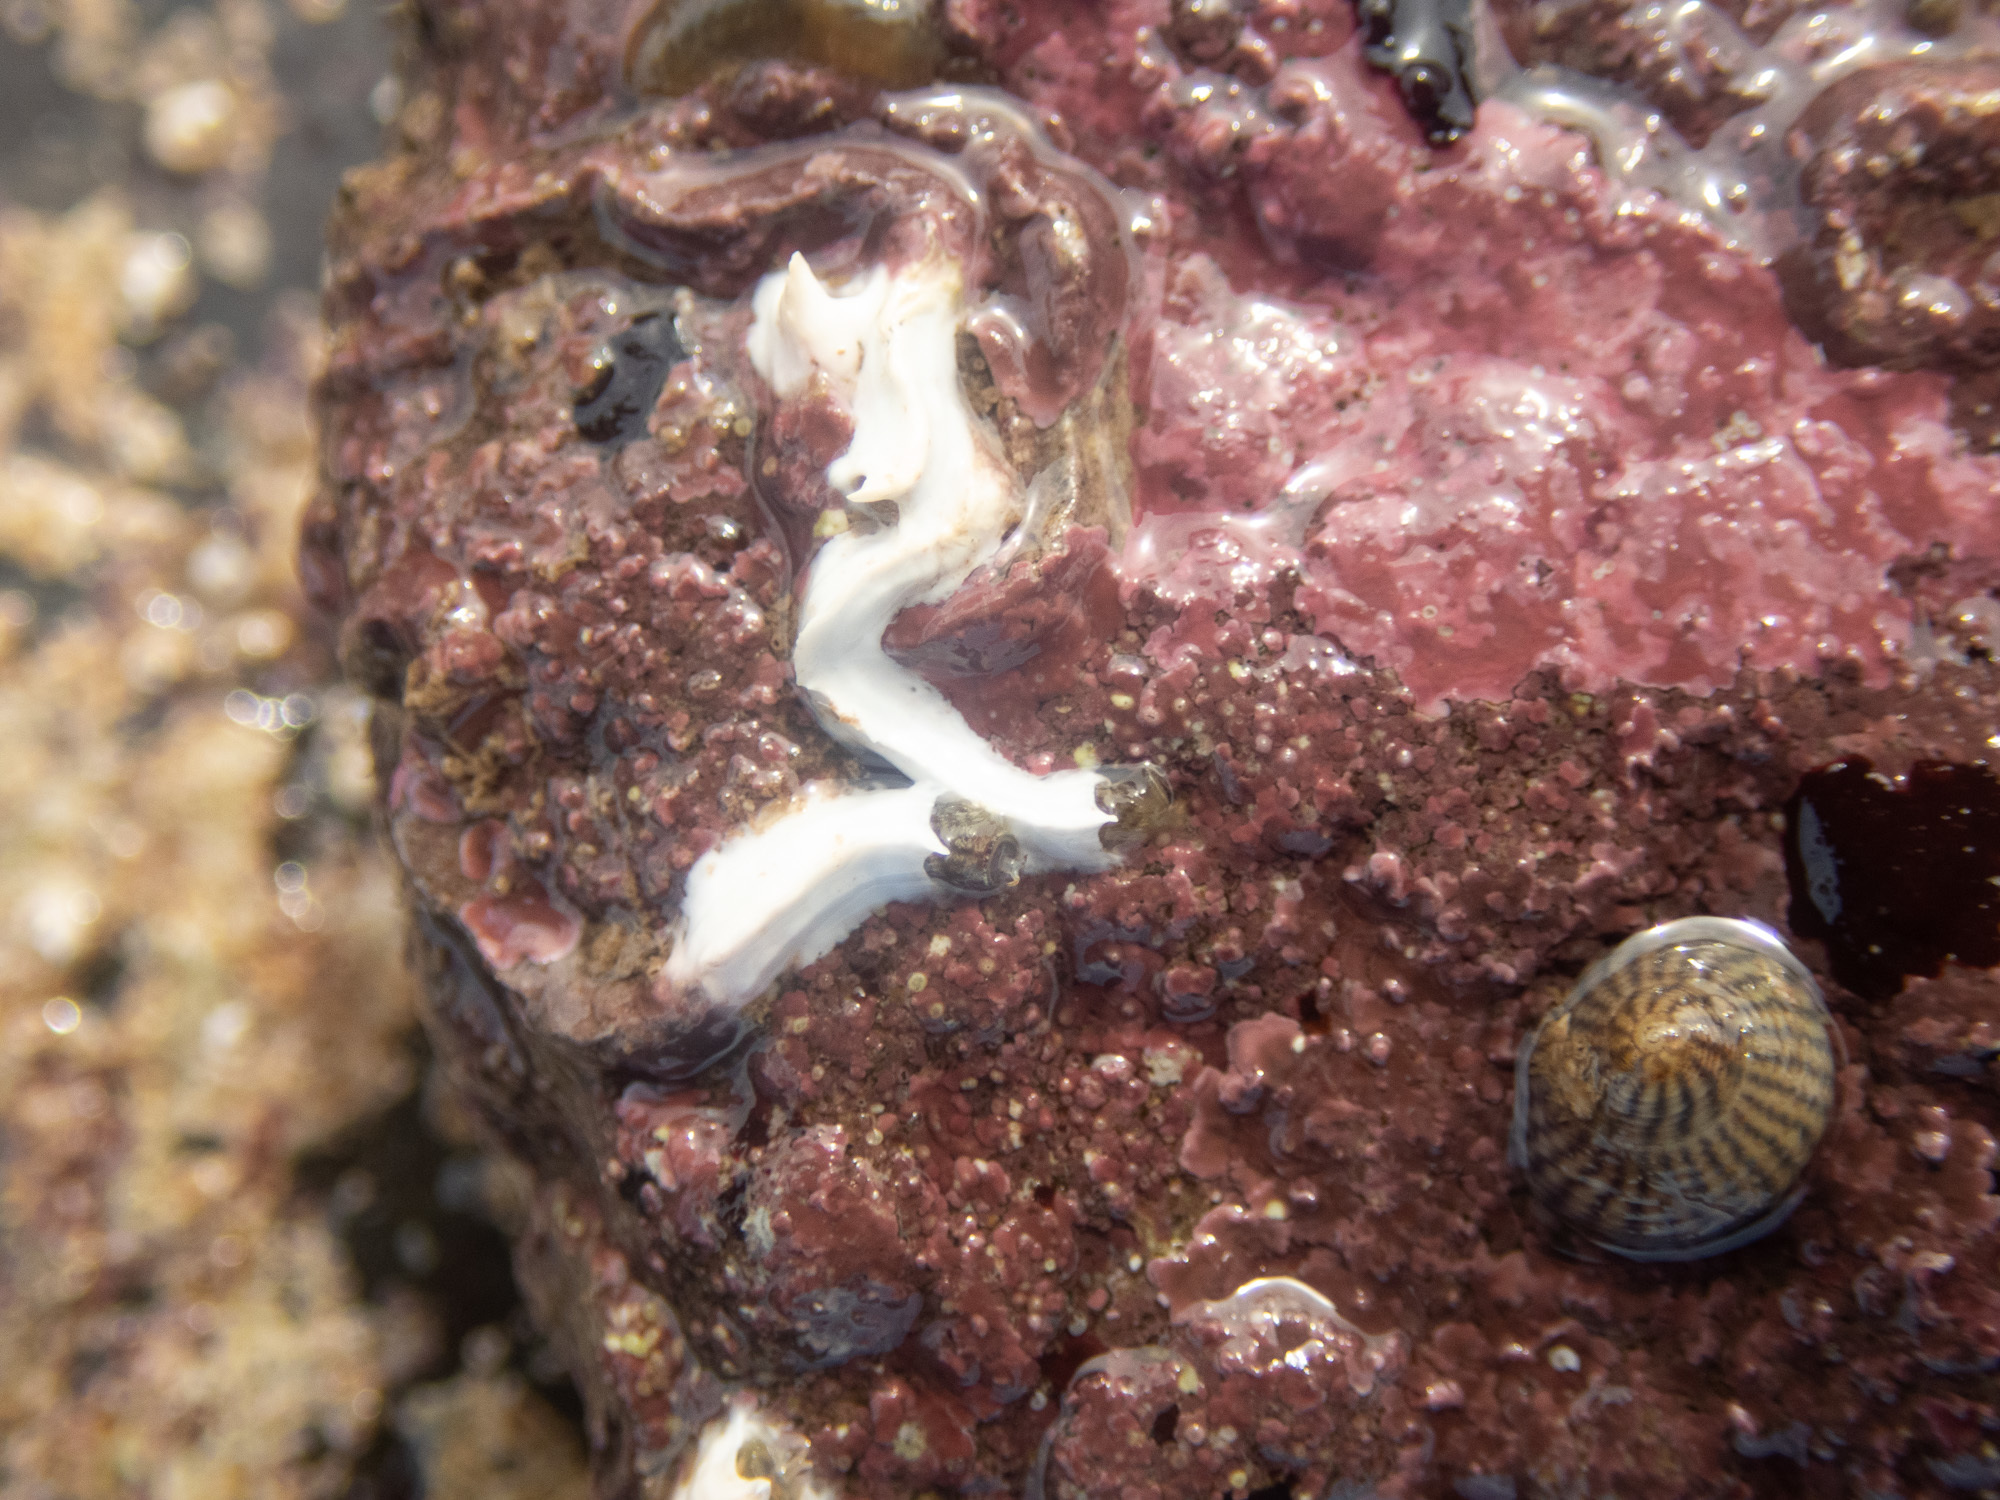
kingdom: Animalia
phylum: Annelida
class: Polychaeta
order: Sabellida
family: Serpulidae
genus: Spirobranchus
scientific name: Spirobranchus lamarcki
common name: Keelworm
